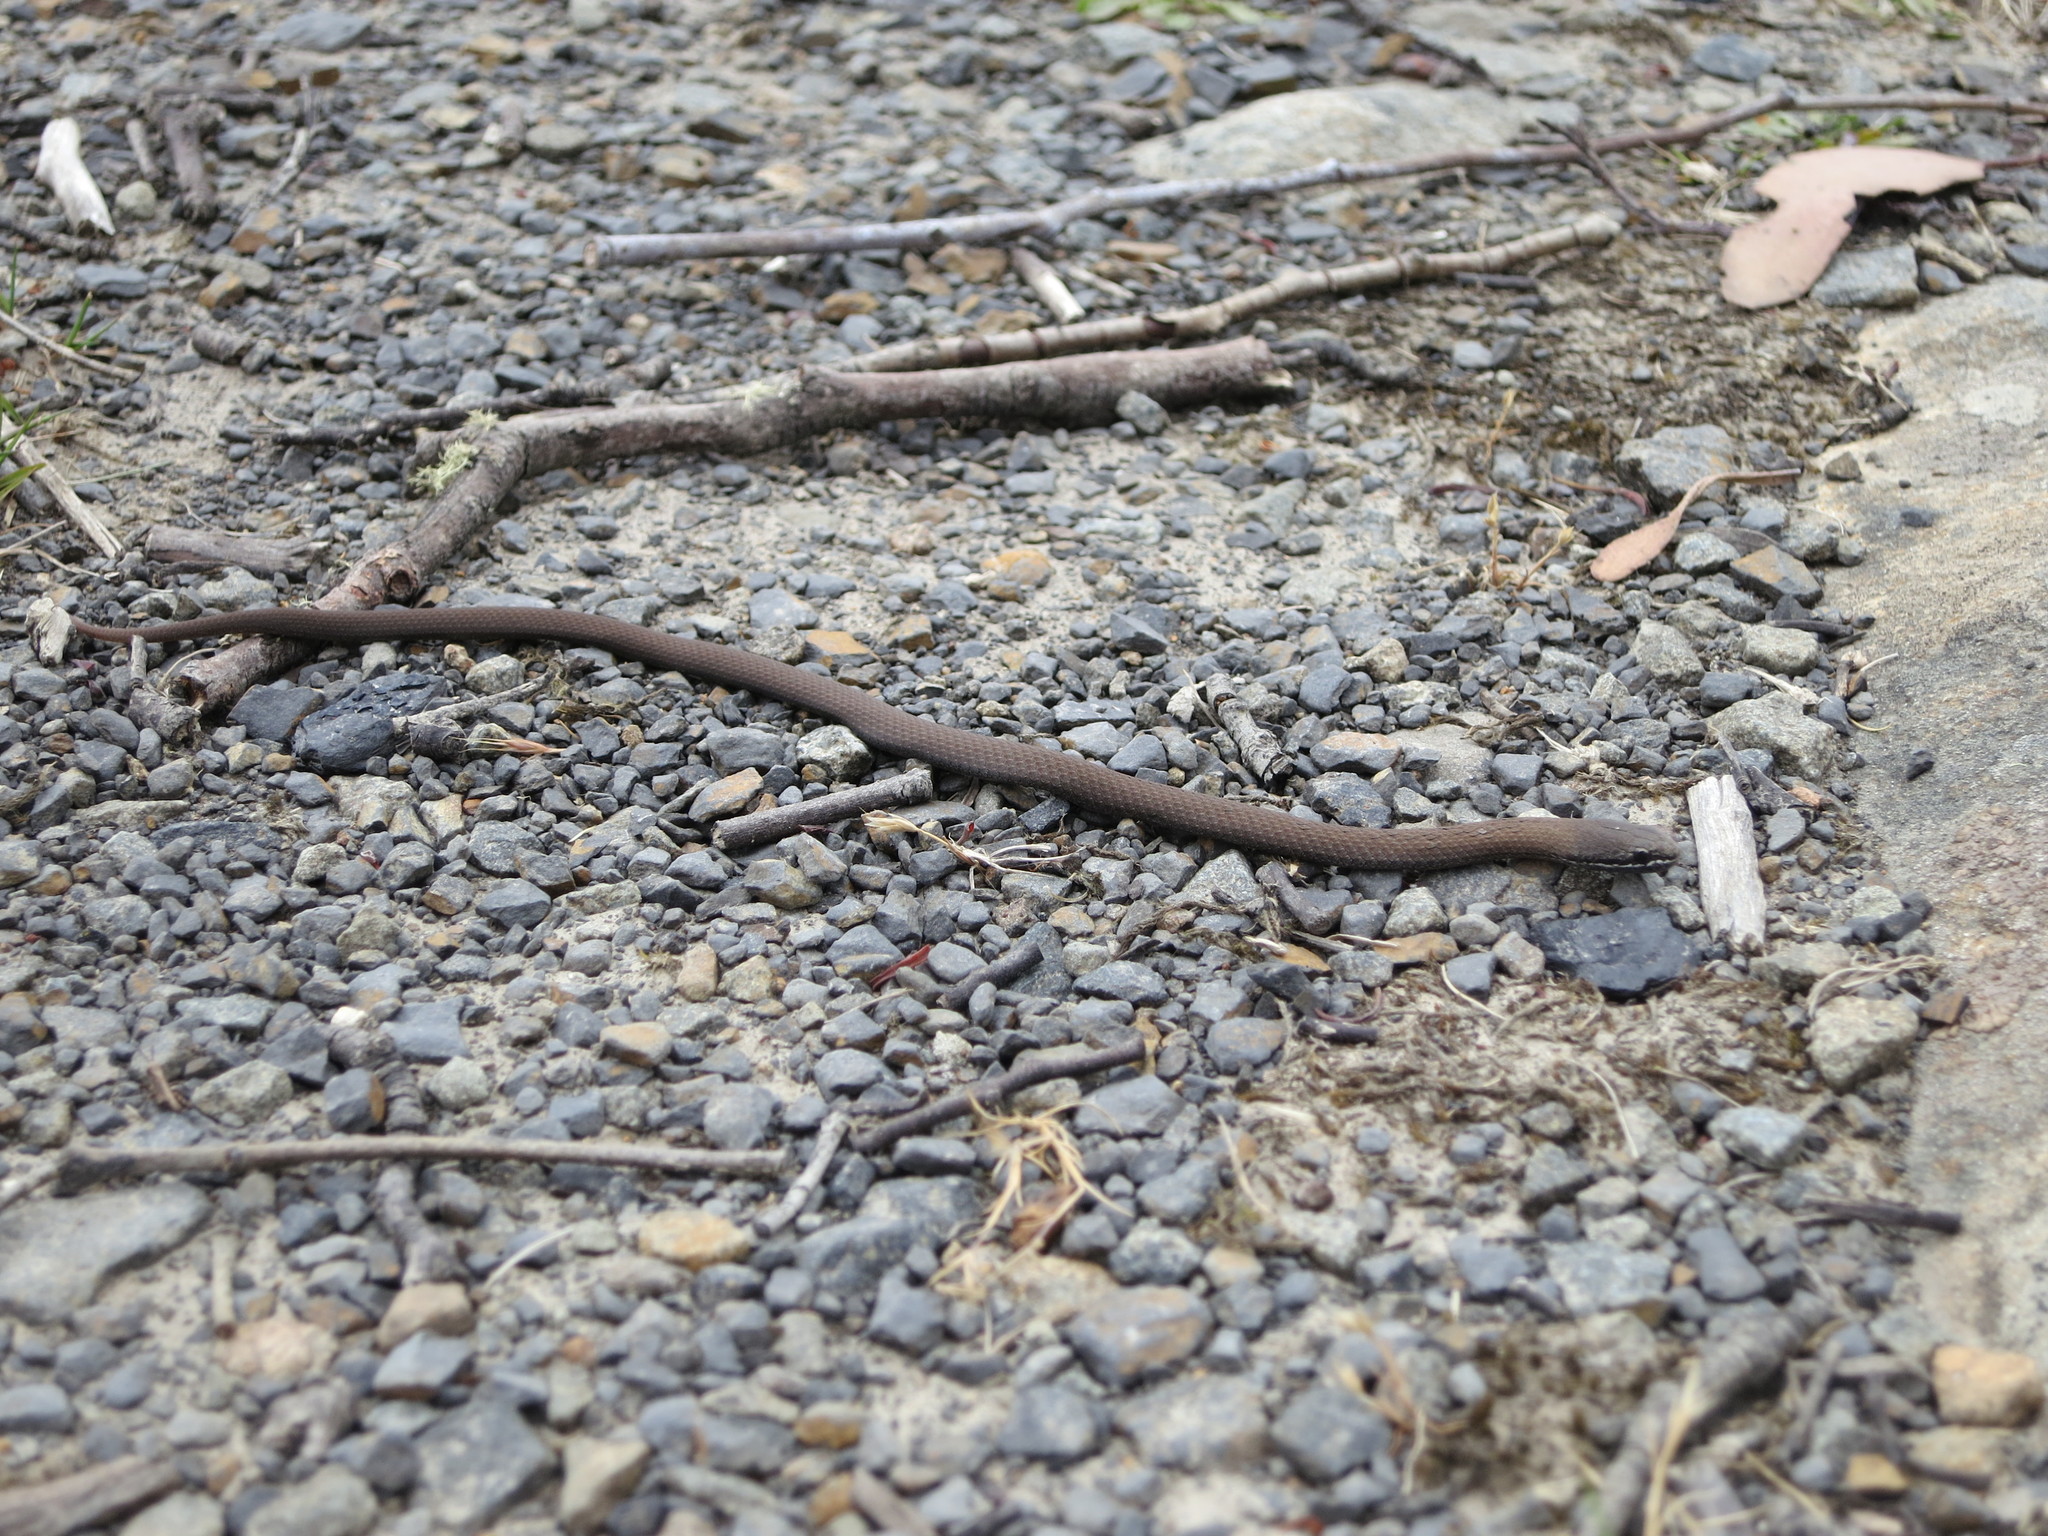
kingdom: Animalia
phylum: Chordata
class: Squamata
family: Elapidae
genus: Drysdalia
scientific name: Drysdalia coronoides
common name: White-lipped snake
